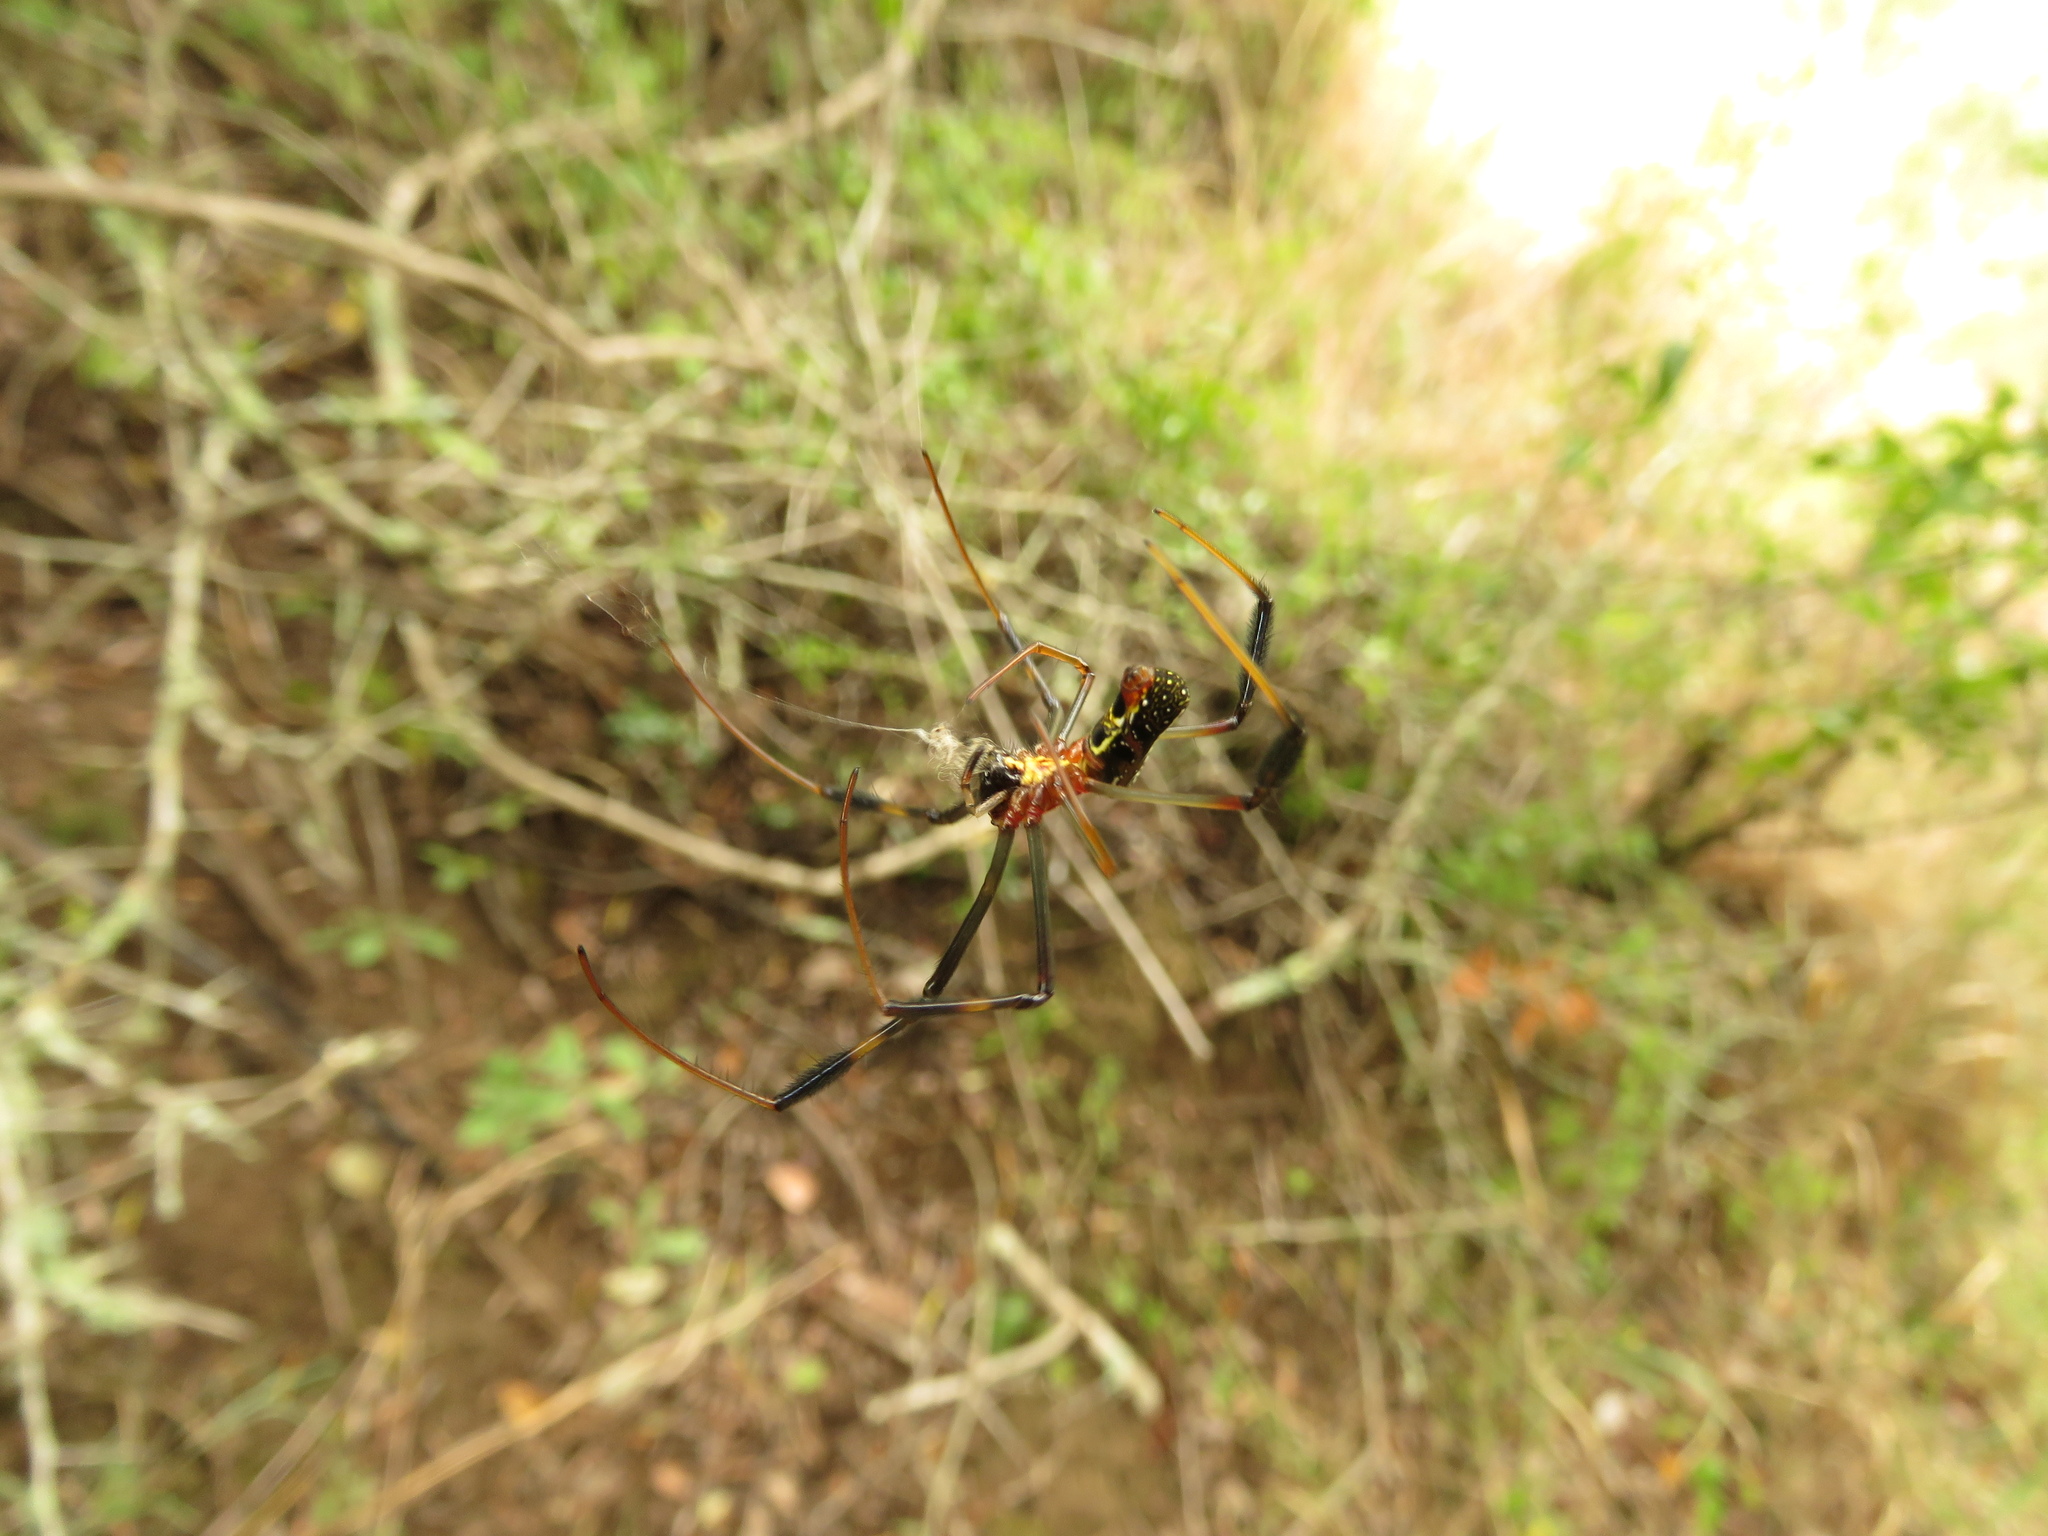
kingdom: Animalia
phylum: Arthropoda
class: Arachnida
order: Araneae
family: Araneidae
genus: Trichonephila
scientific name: Trichonephila senegalensis
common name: Banded golden orb weaver
